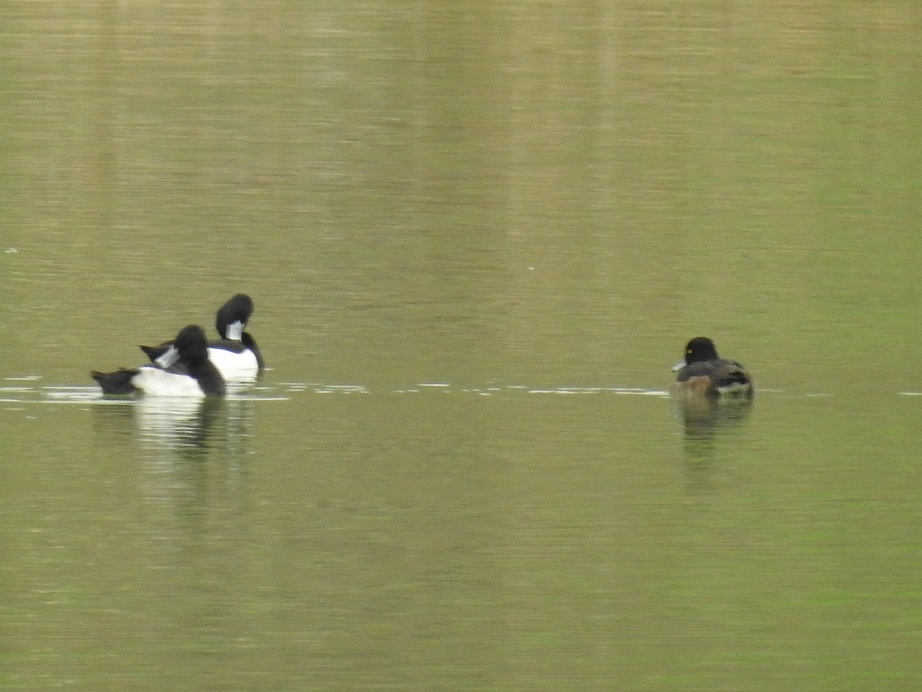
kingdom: Animalia
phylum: Chordata
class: Aves
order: Anseriformes
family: Anatidae
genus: Aythya
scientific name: Aythya fuligula
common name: Tufted duck
